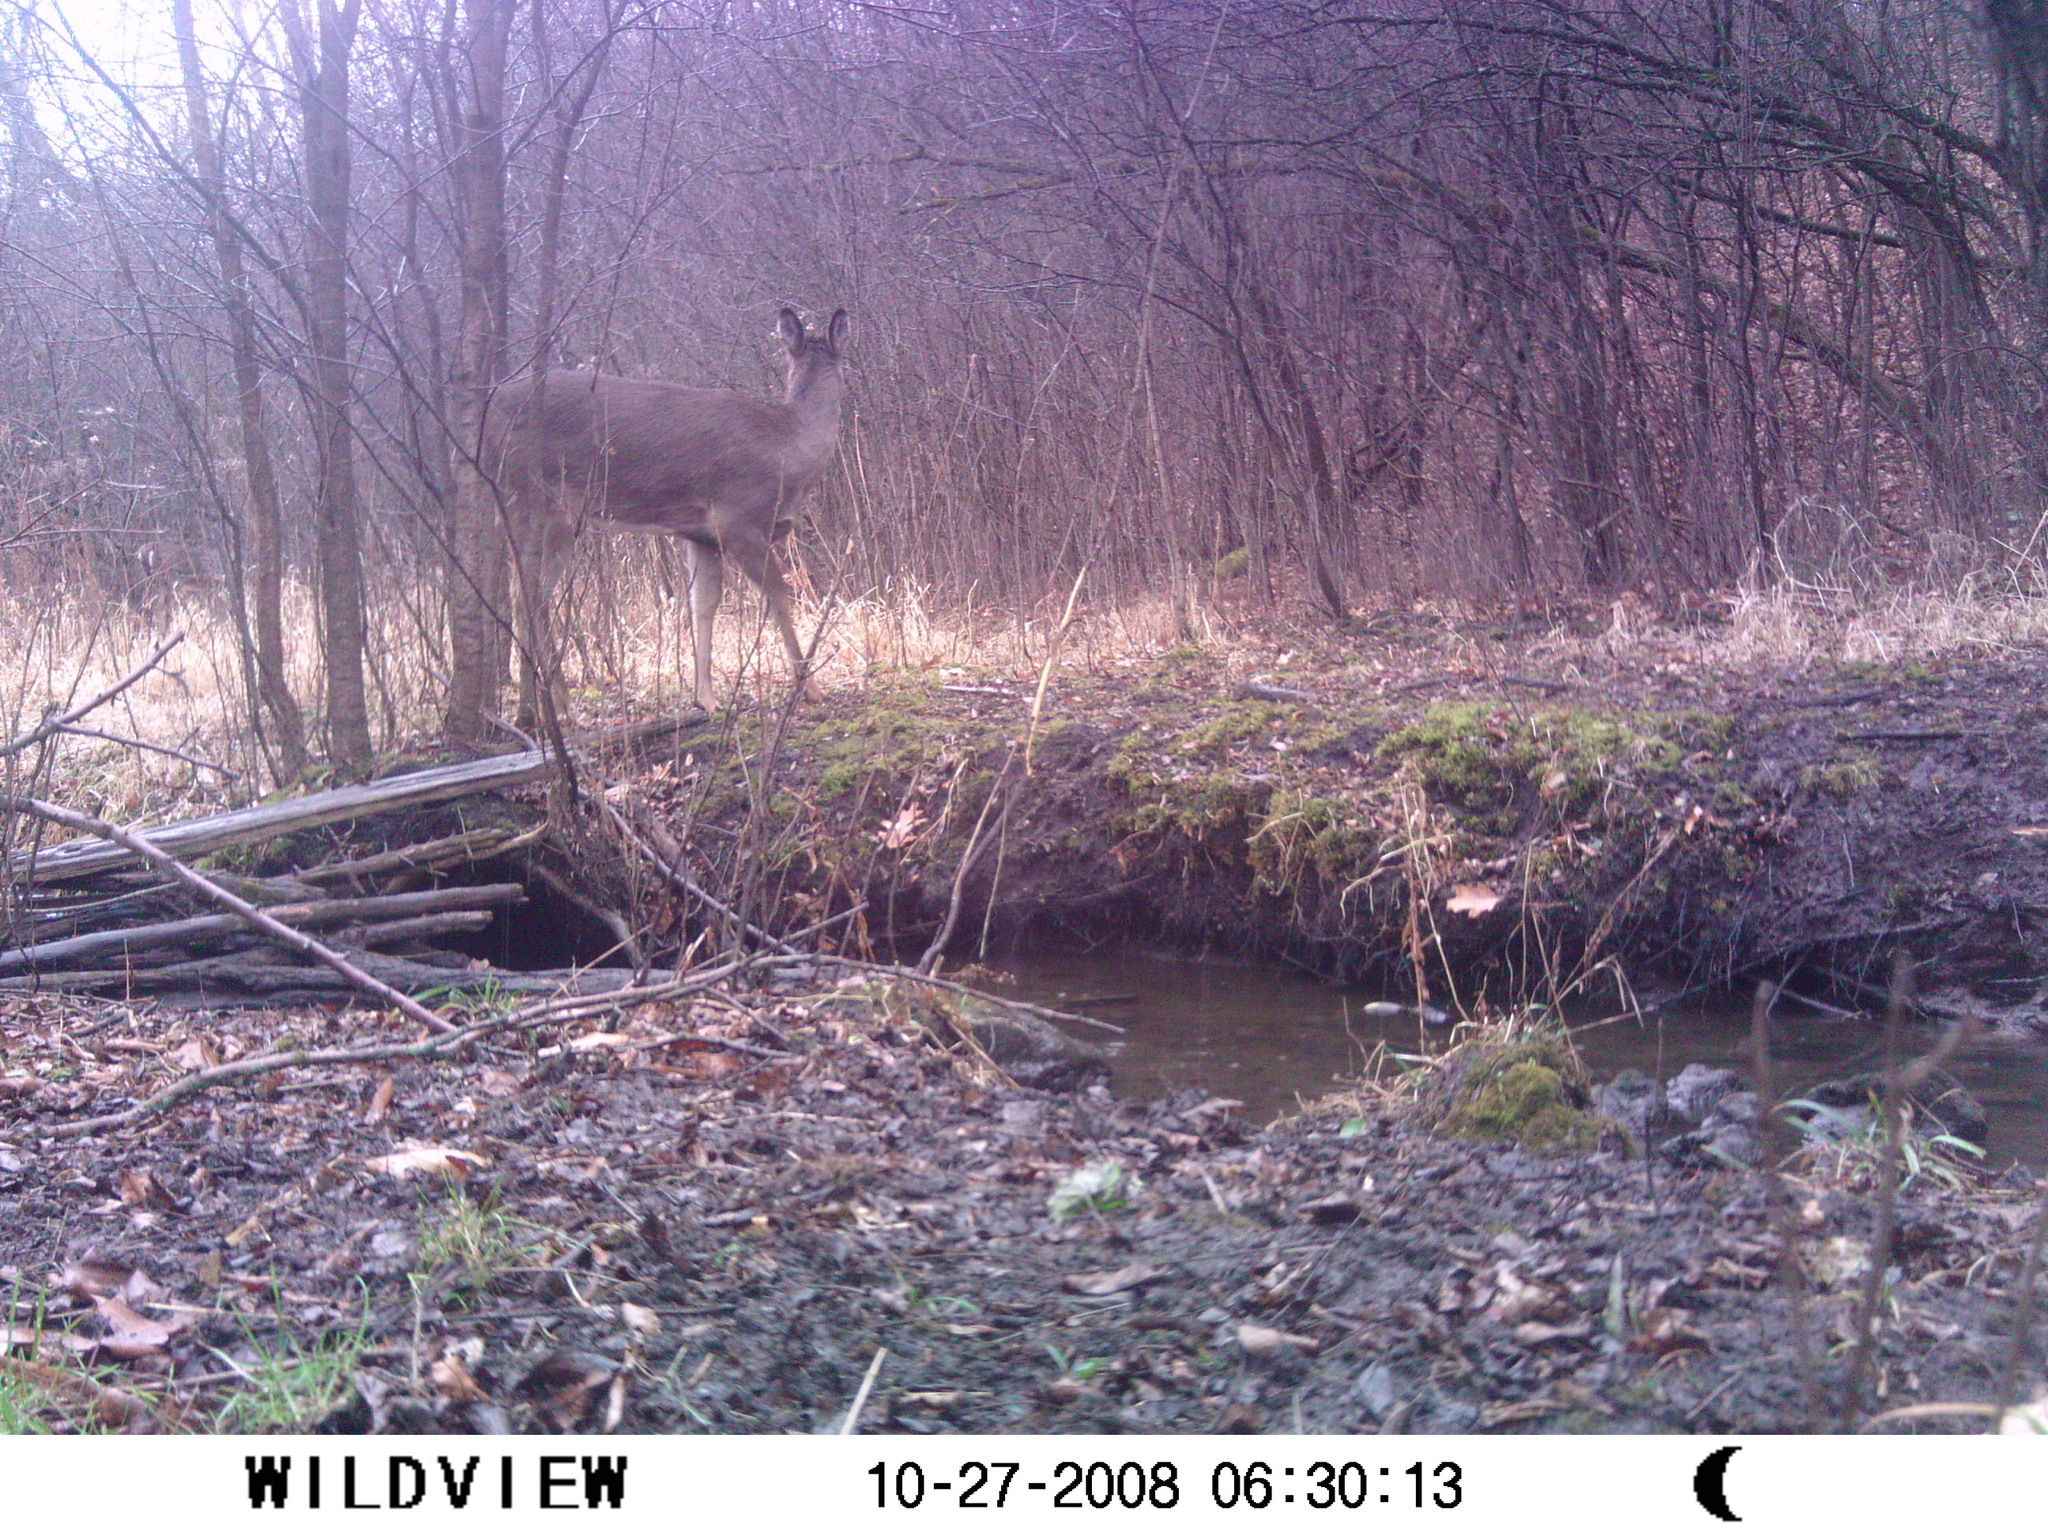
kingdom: Animalia
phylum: Chordata
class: Mammalia
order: Artiodactyla
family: Cervidae
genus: Odocoileus
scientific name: Odocoileus virginianus
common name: White-tailed deer
